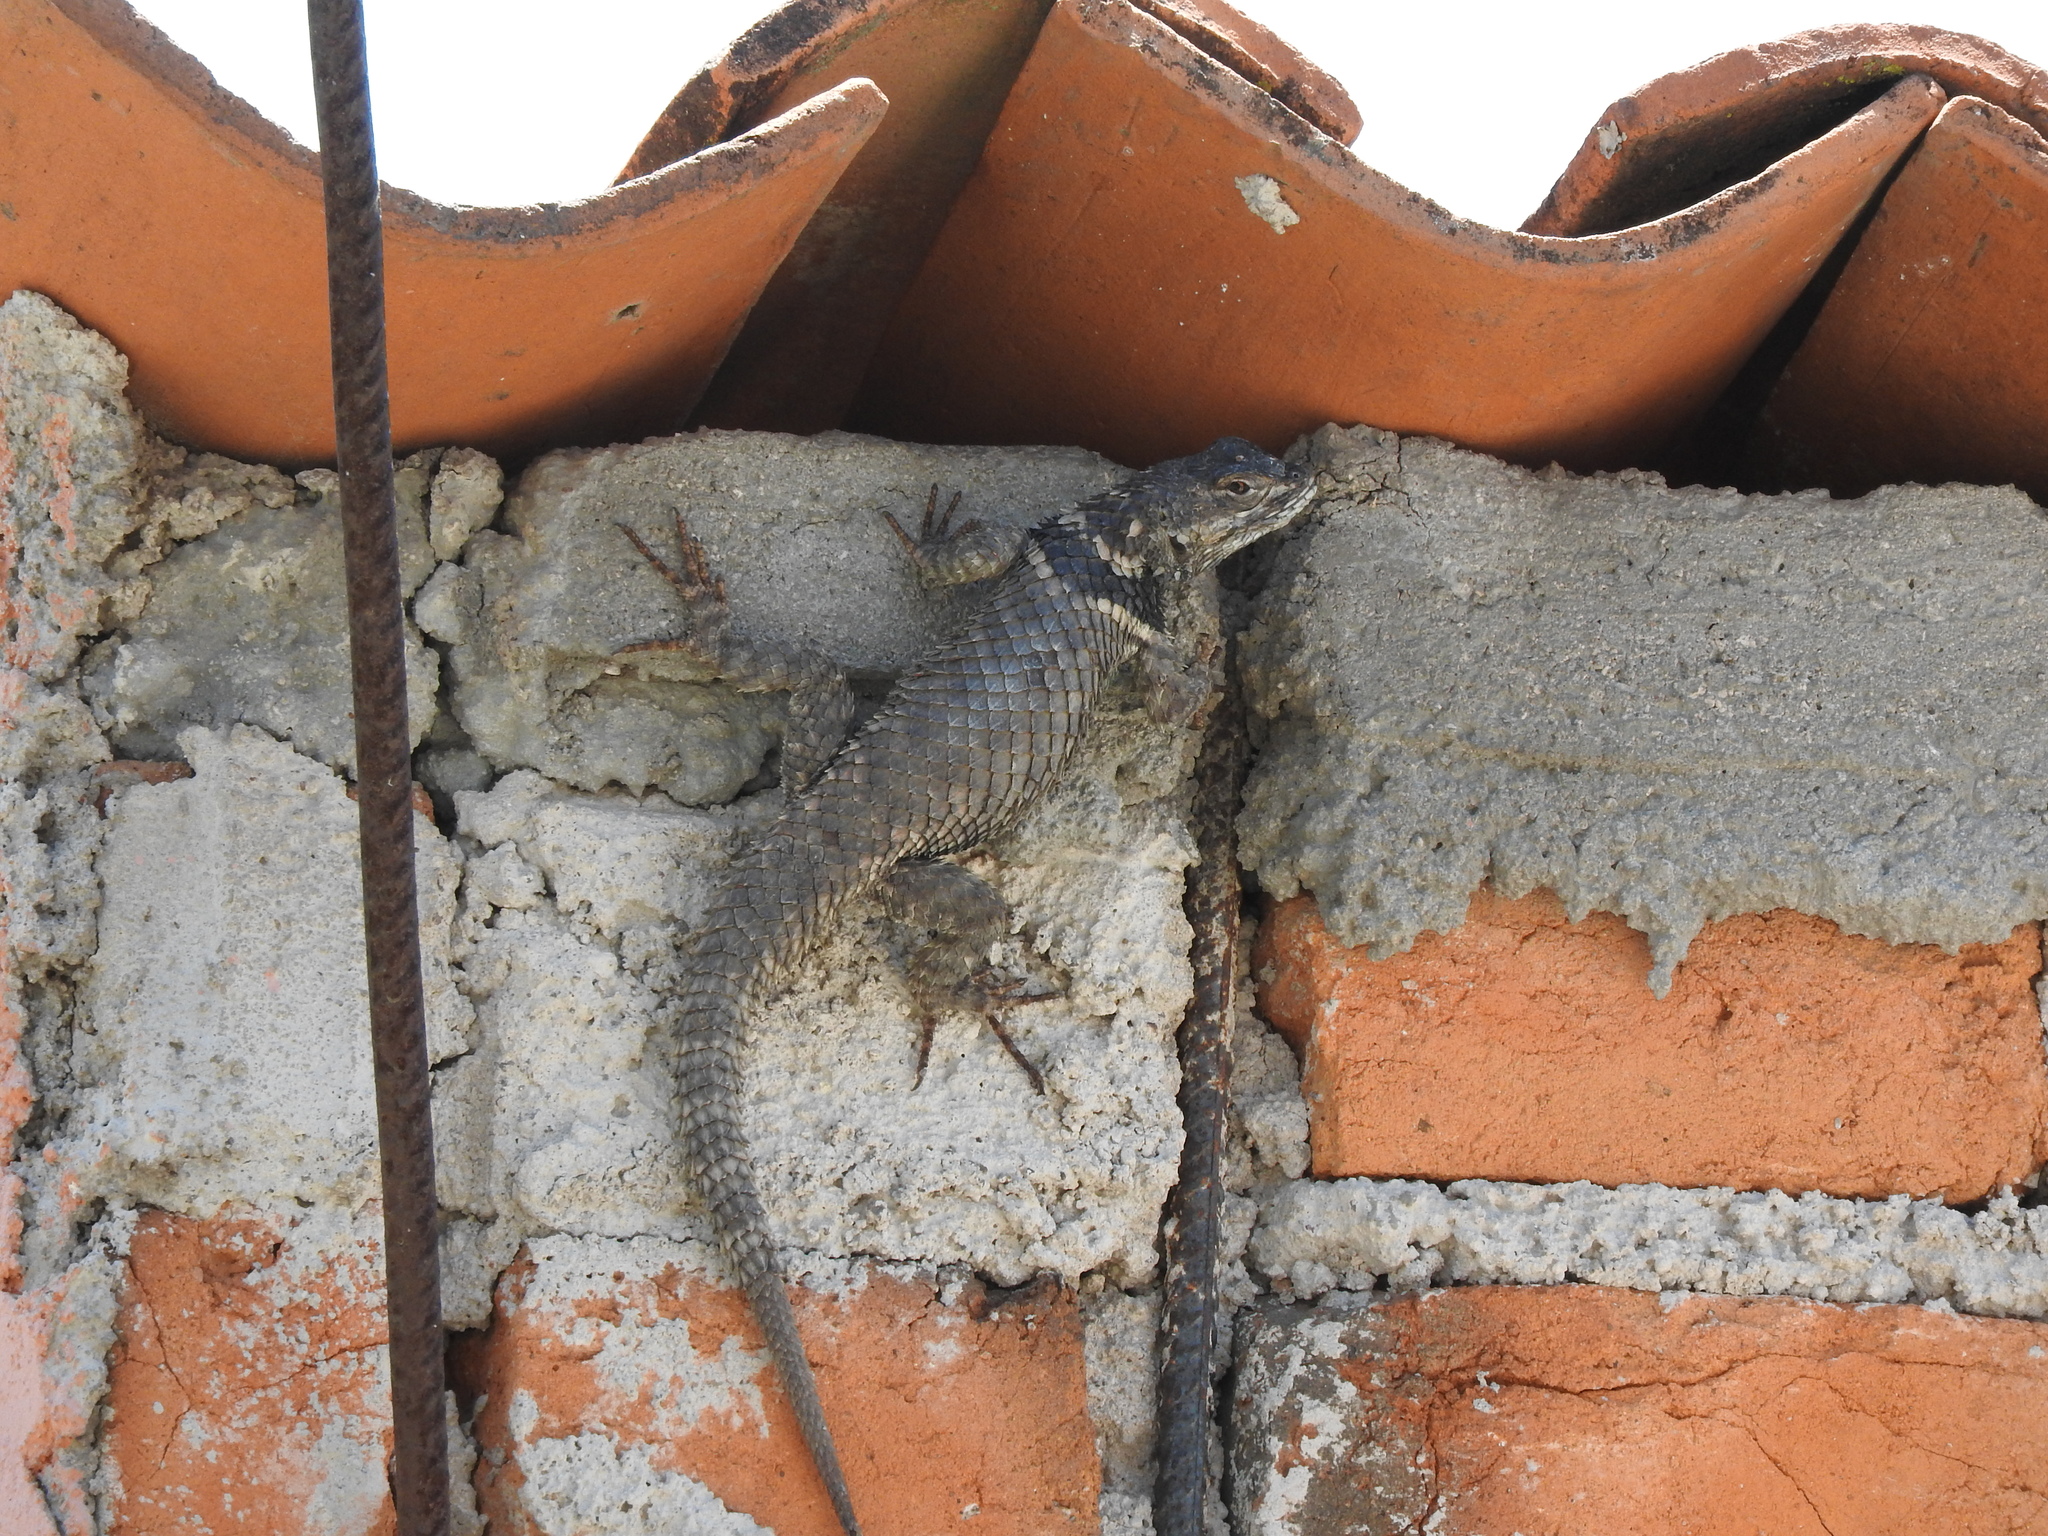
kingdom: Animalia
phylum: Chordata
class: Squamata
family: Phrynosomatidae
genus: Sceloporus
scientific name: Sceloporus torquatus
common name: Central plateau torquate lizard [melanogaster]
